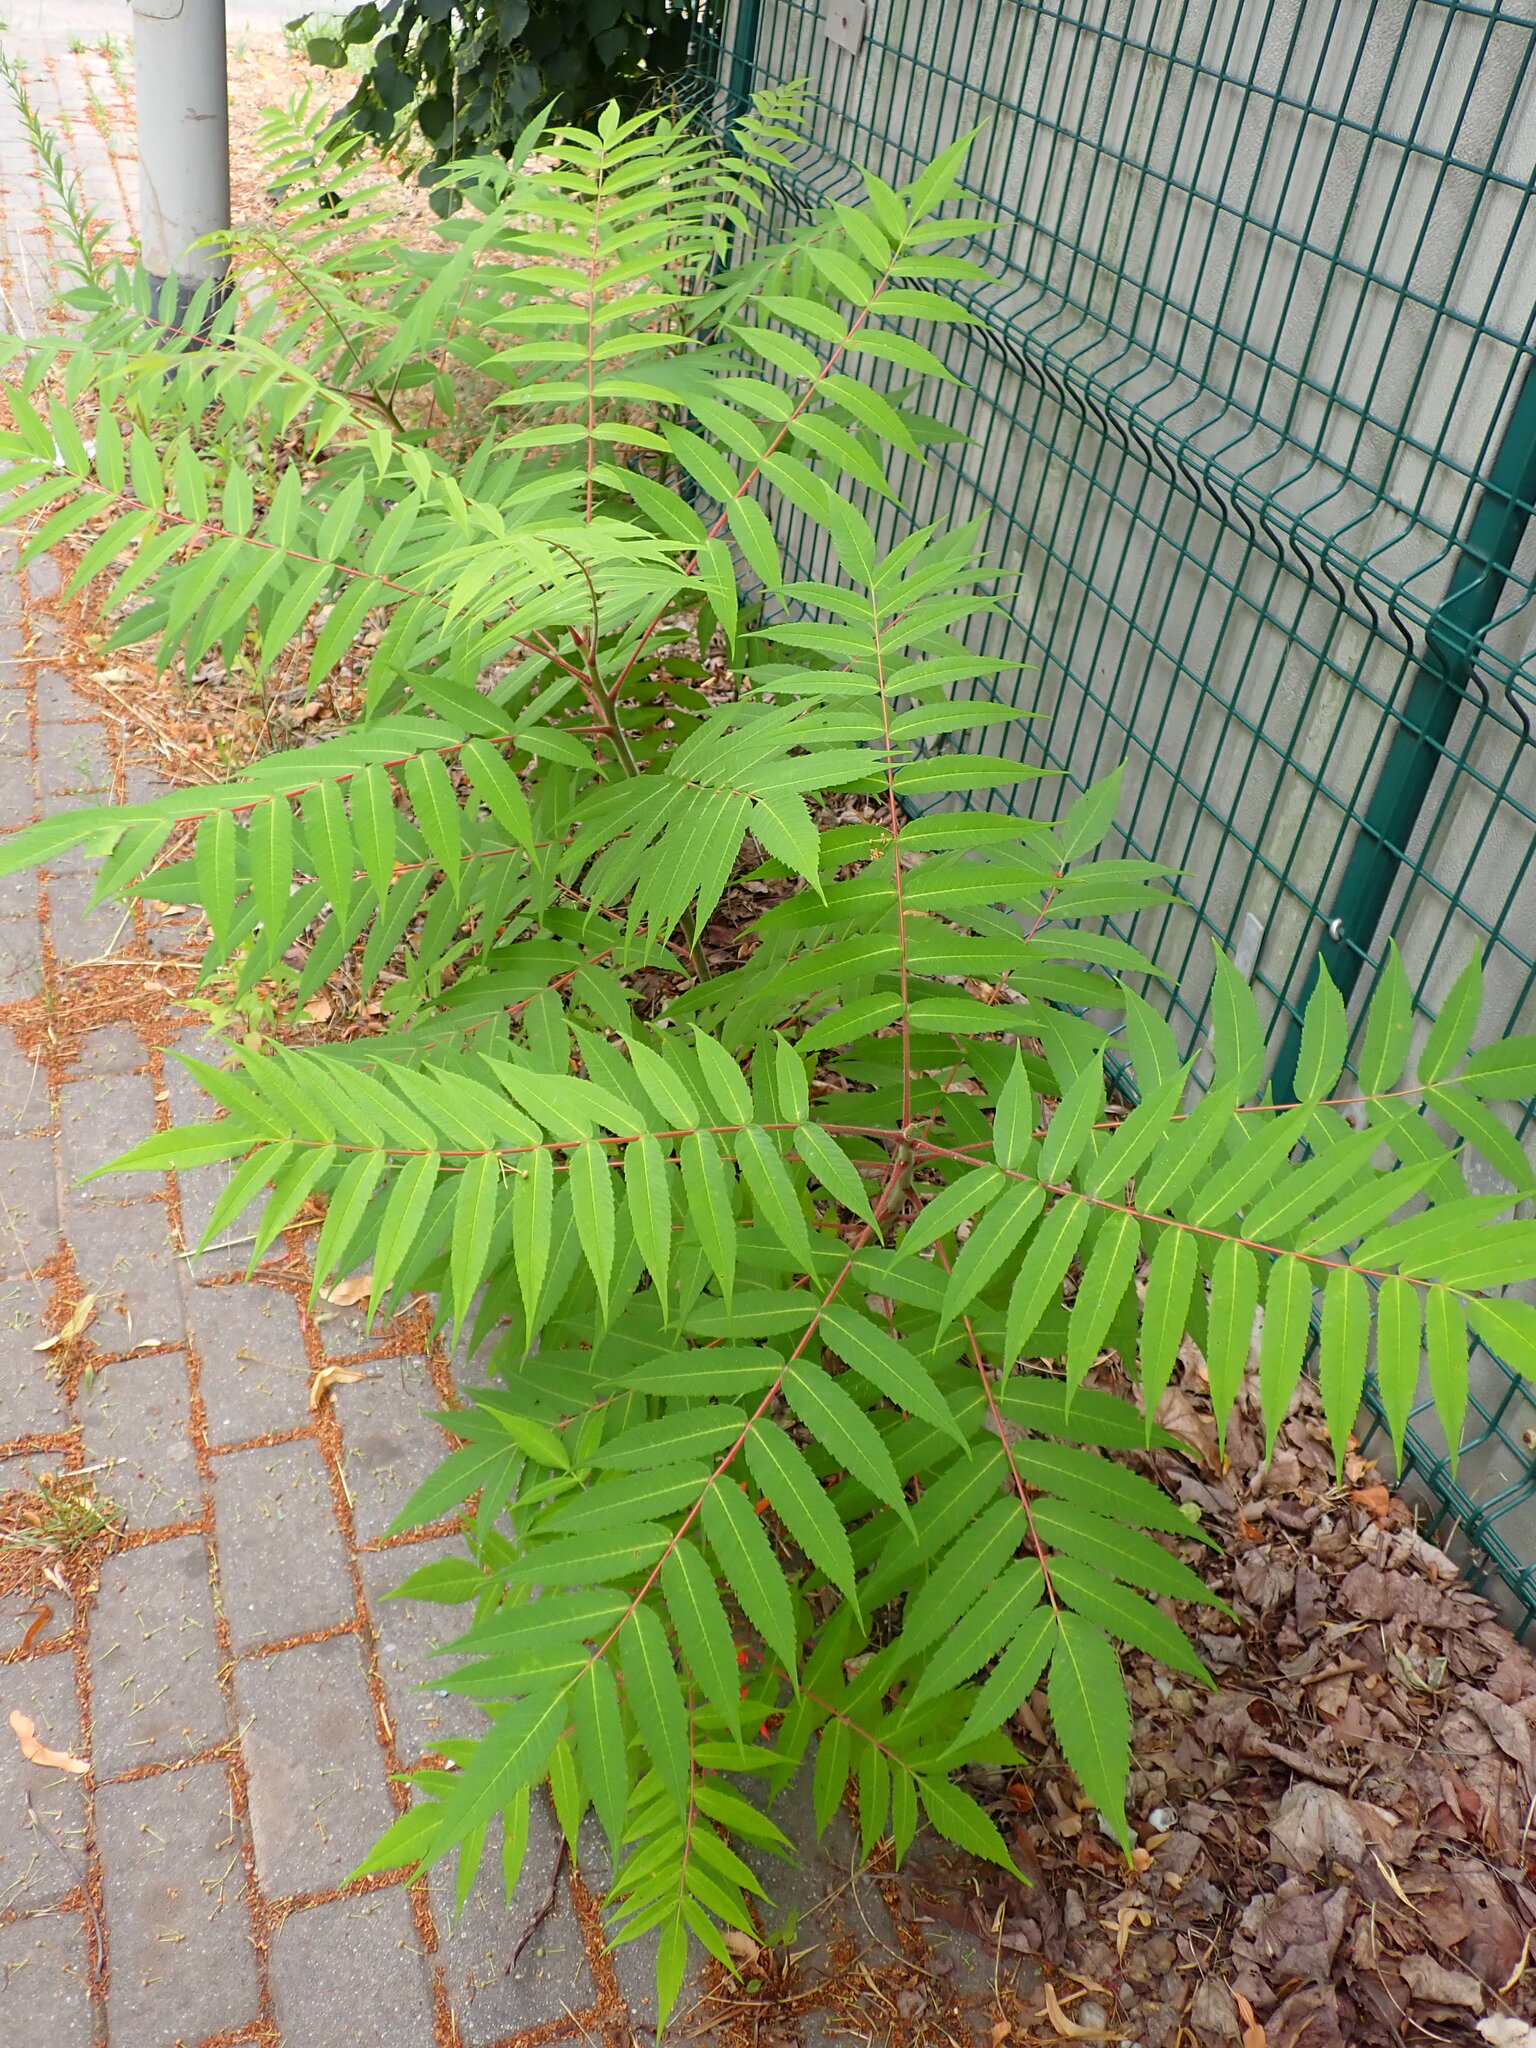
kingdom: Plantae
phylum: Tracheophyta
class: Magnoliopsida
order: Sapindales
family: Anacardiaceae
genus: Rhus
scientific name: Rhus typhina
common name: Staghorn sumac
